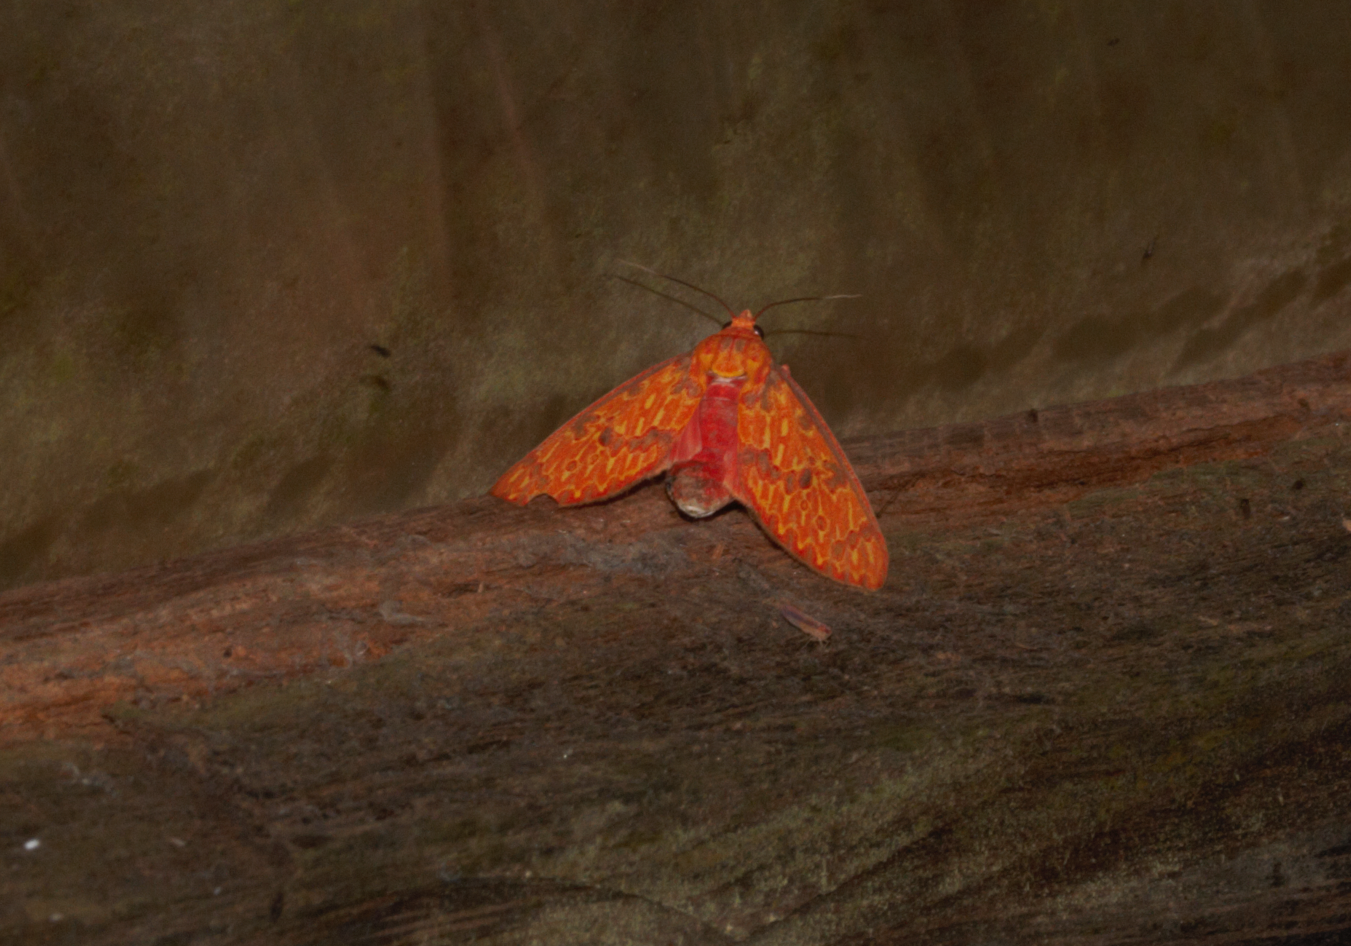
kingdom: Animalia
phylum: Arthropoda
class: Insecta
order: Lepidoptera
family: Erebidae
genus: Eriostepta
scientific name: Eriostepta bacchans
